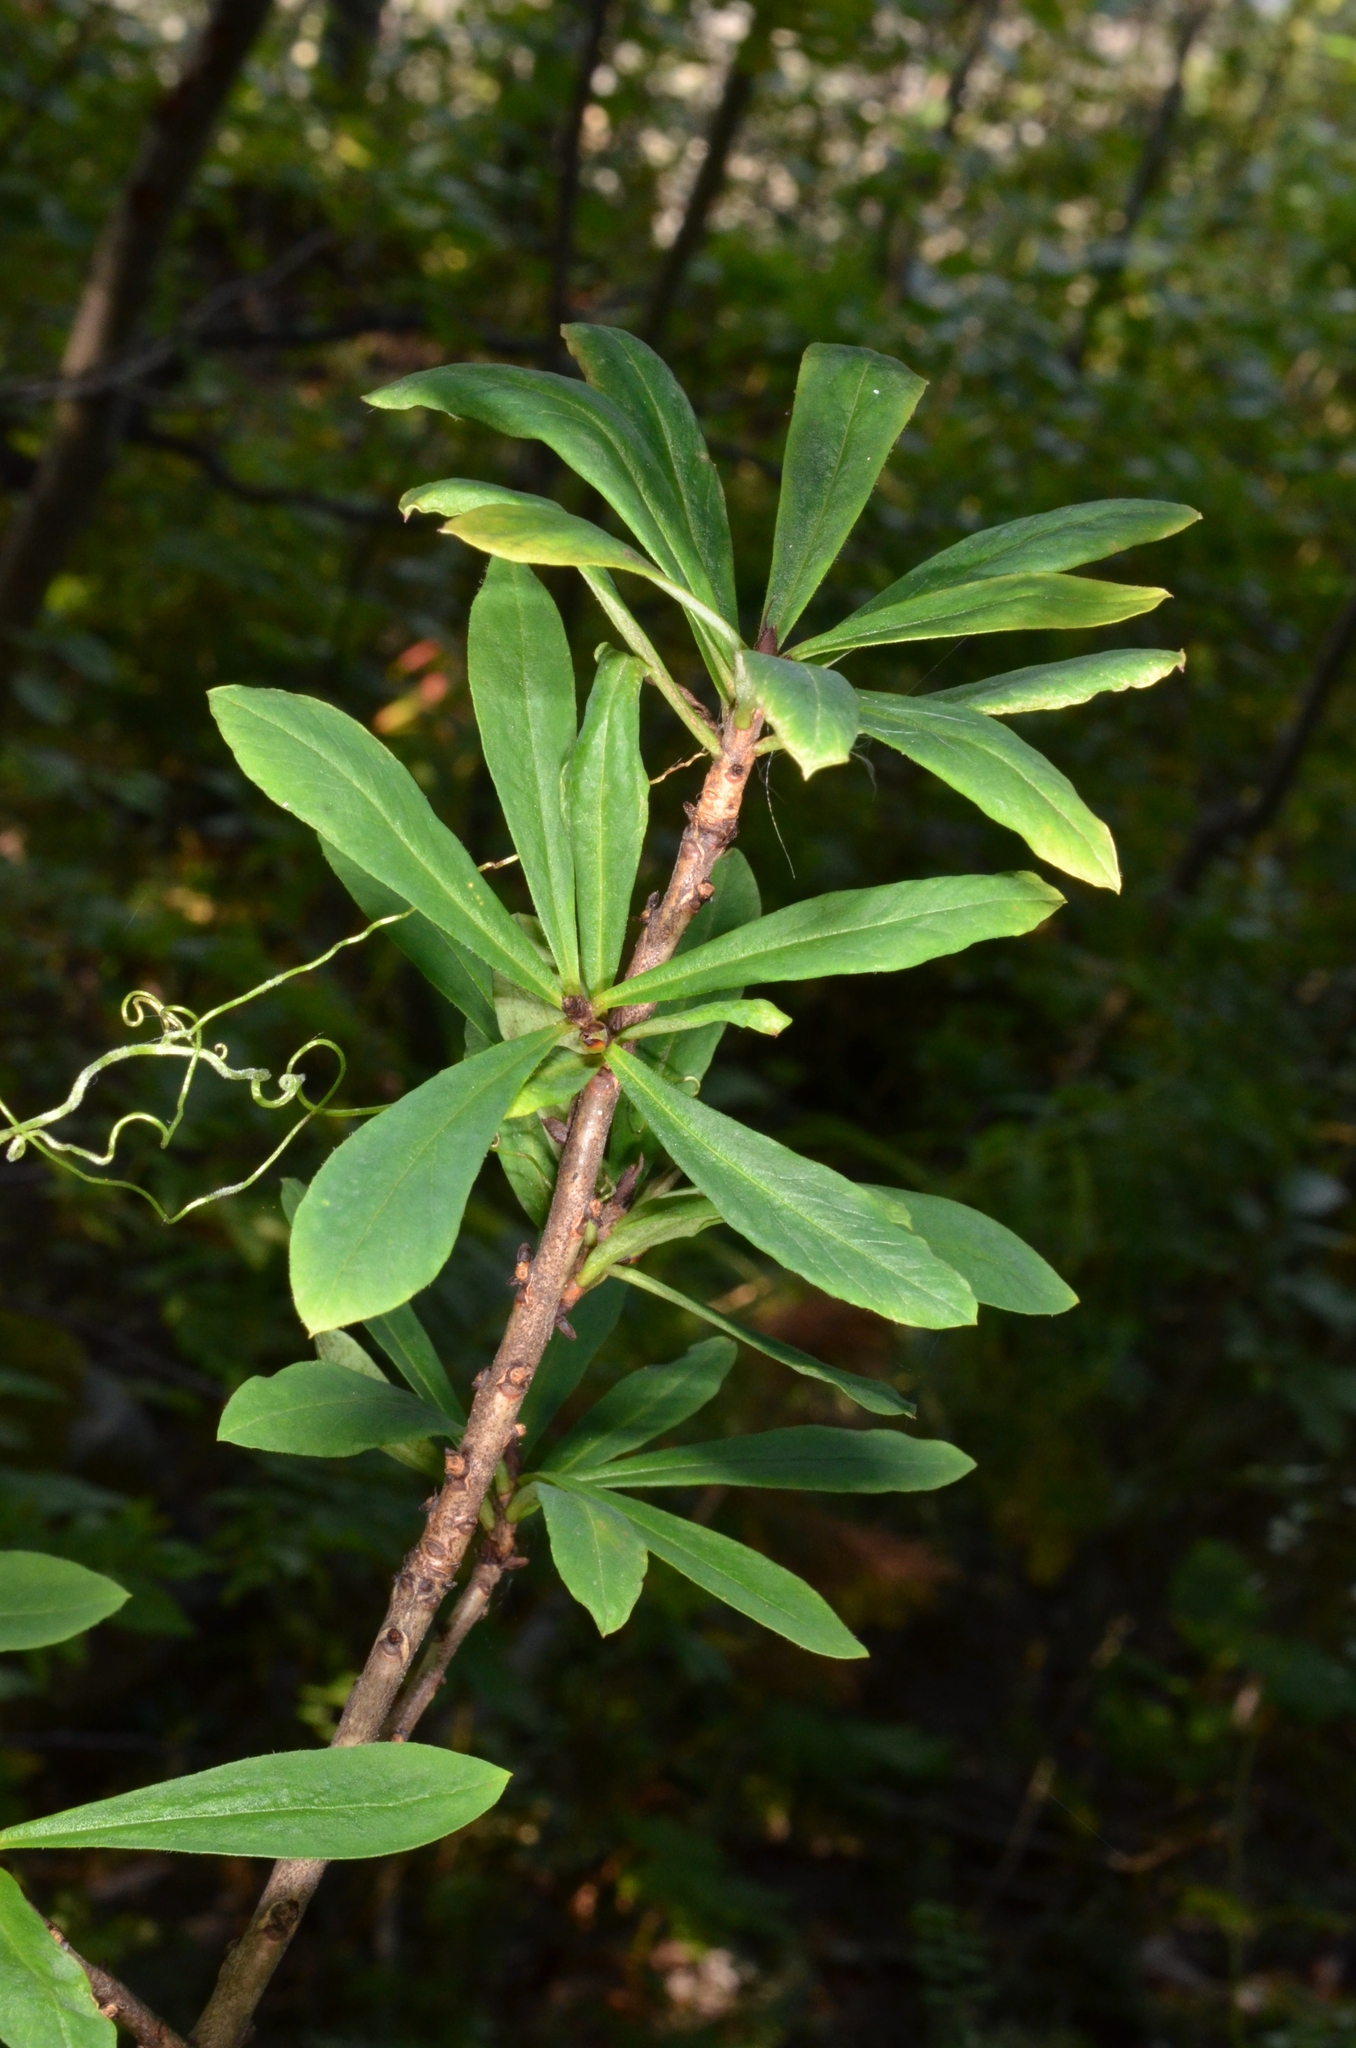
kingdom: Plantae
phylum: Tracheophyta
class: Magnoliopsida
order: Malvales
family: Thymelaeaceae
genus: Daphne
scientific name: Daphne mezereum
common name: Mezereon
